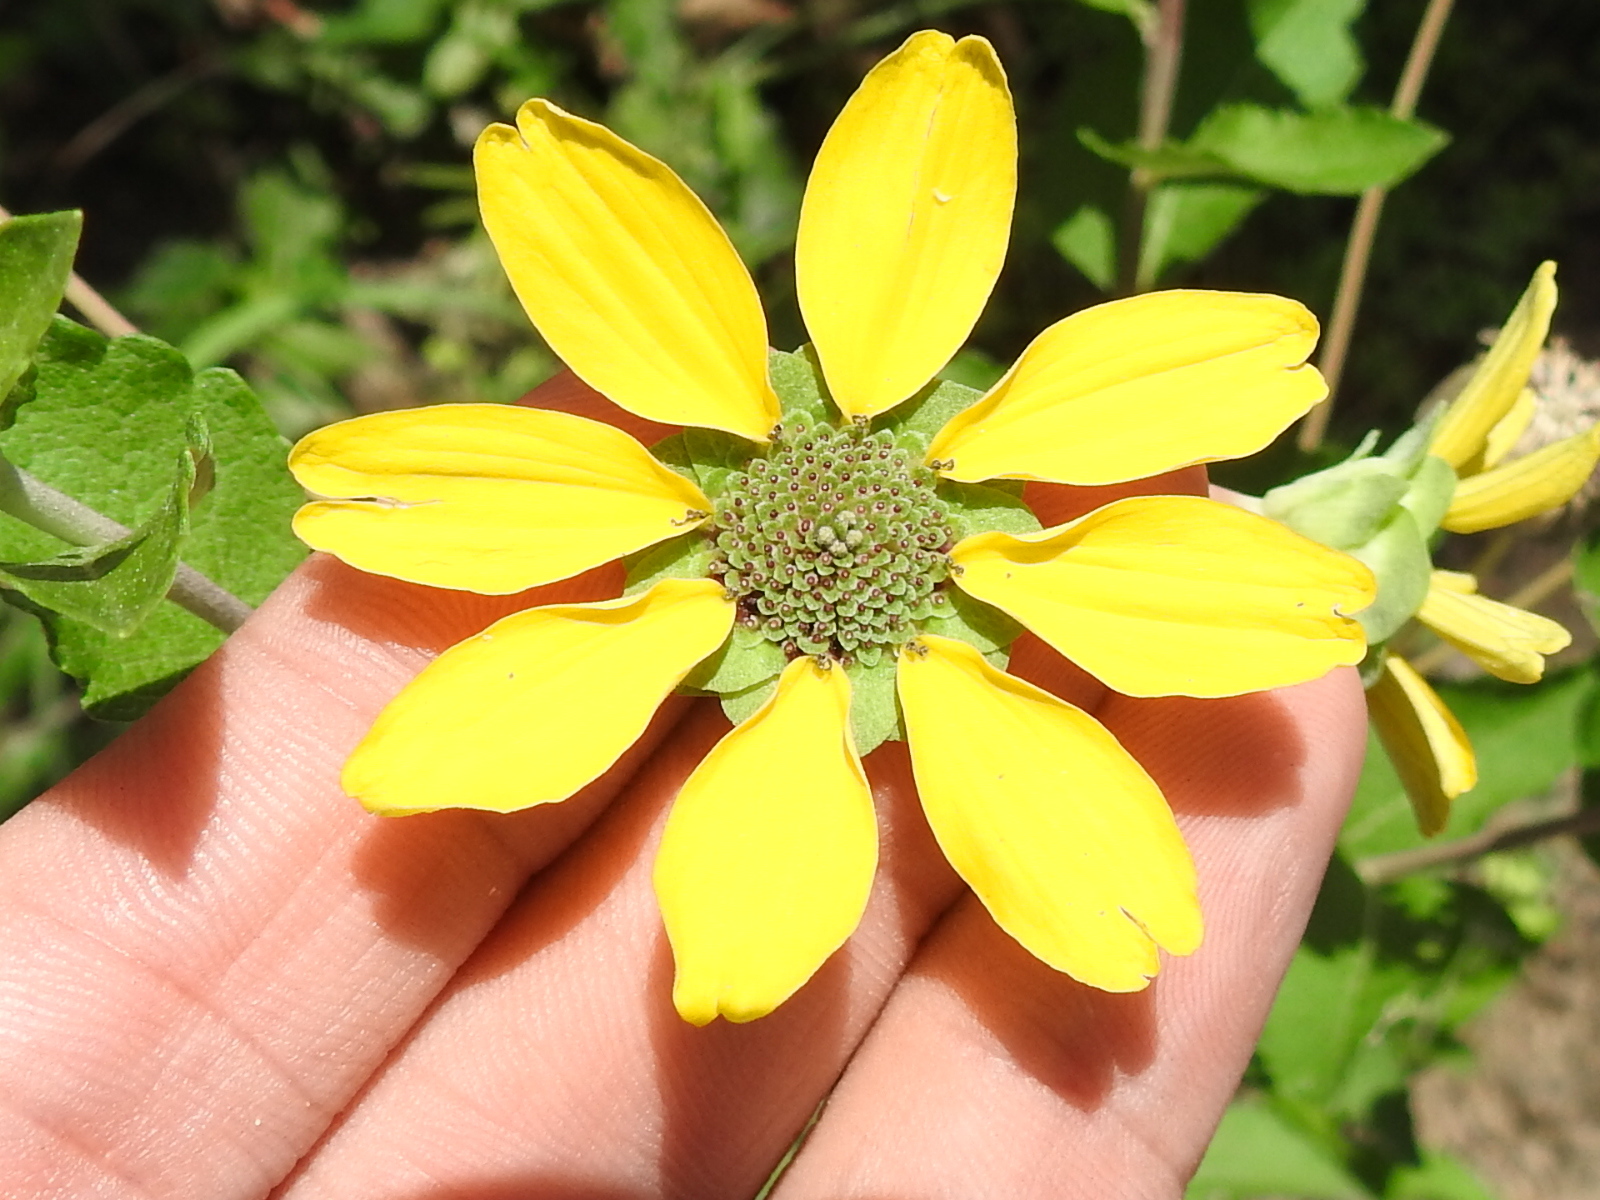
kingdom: Plantae
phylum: Tracheophyta
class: Magnoliopsida
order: Asterales
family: Asteraceae
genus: Berlandiera
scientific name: Berlandiera pumila
